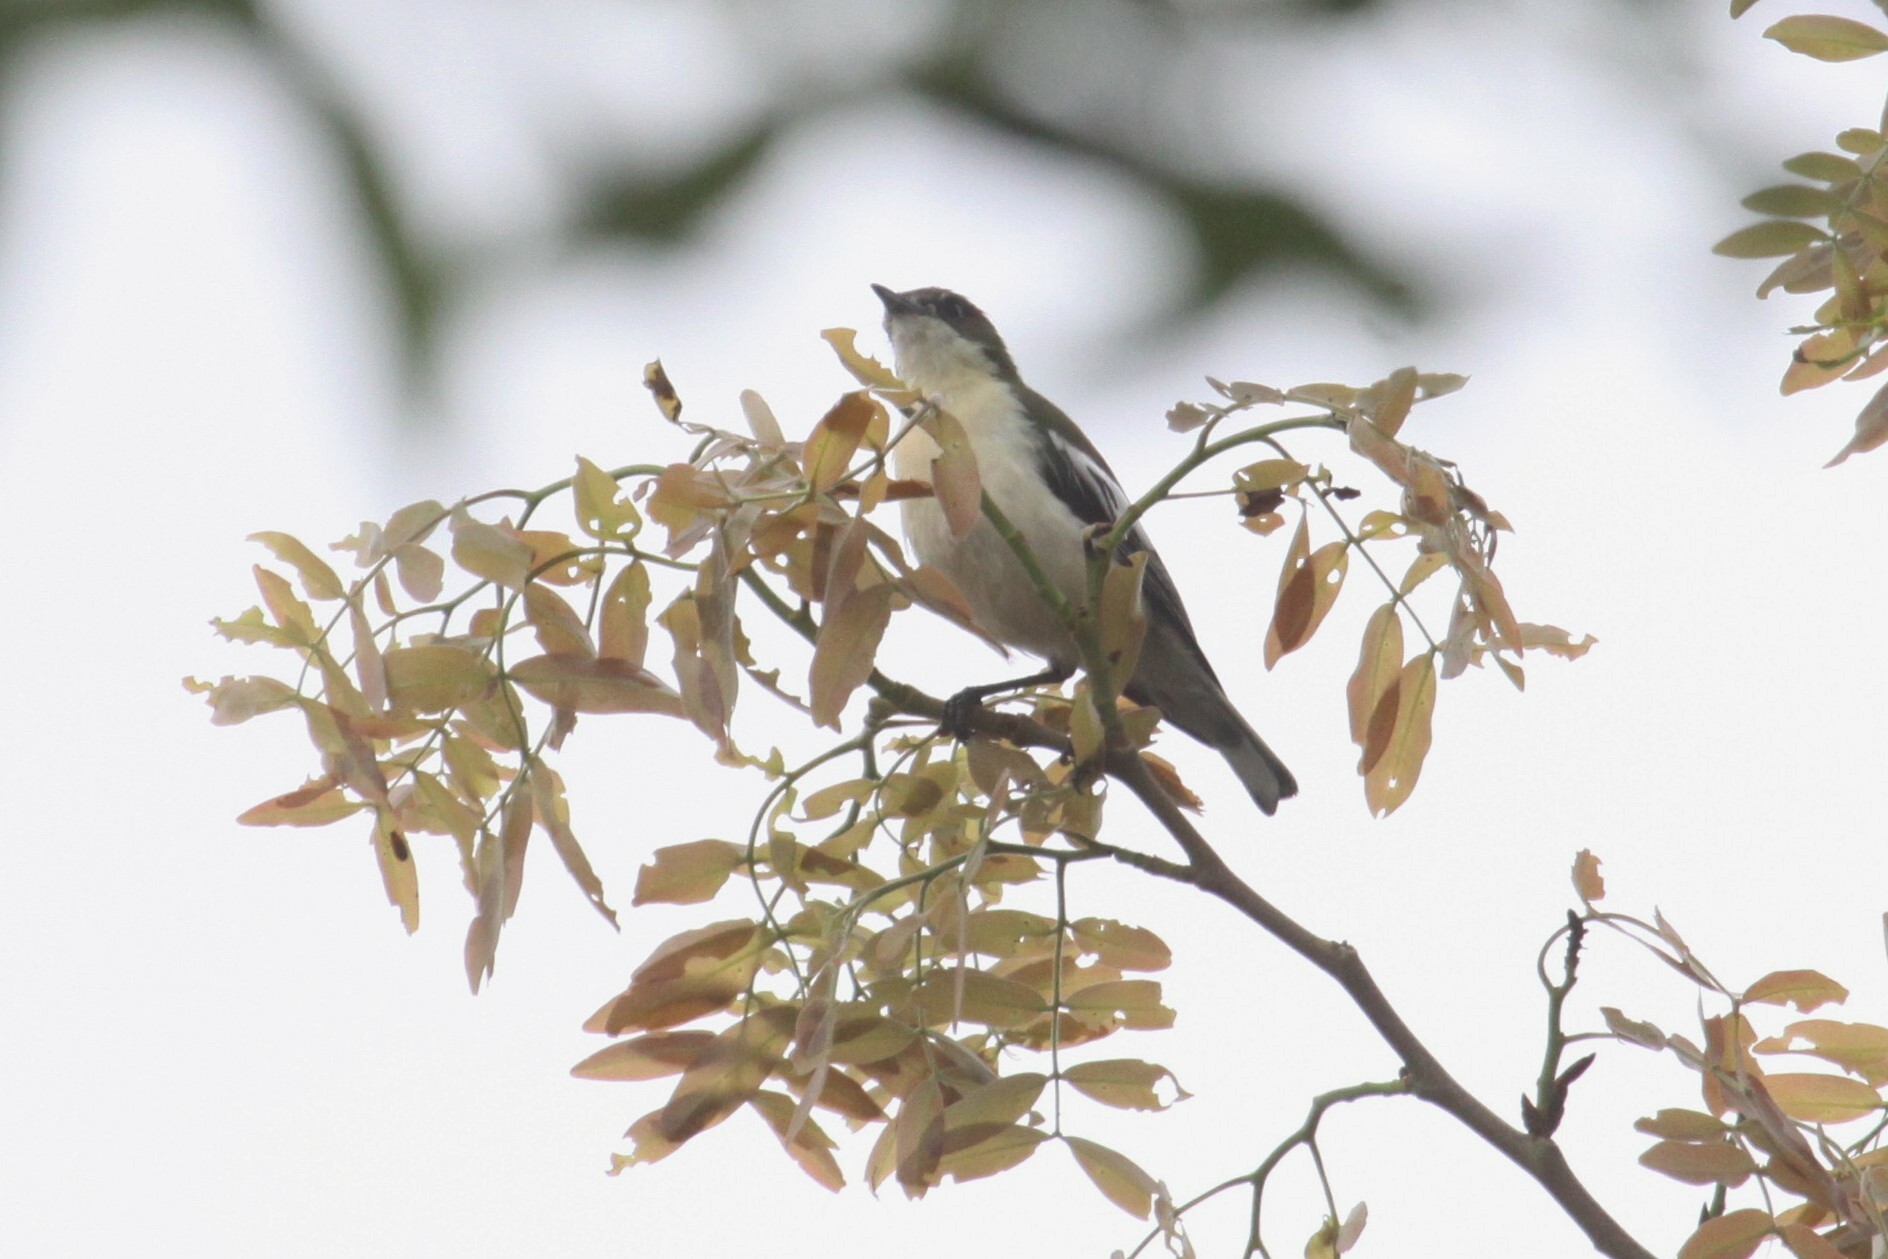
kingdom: Animalia
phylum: Chordata
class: Aves
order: Passeriformes
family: Hyliotidae
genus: Hyliota
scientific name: Hyliota australis
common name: Southern hyliota
